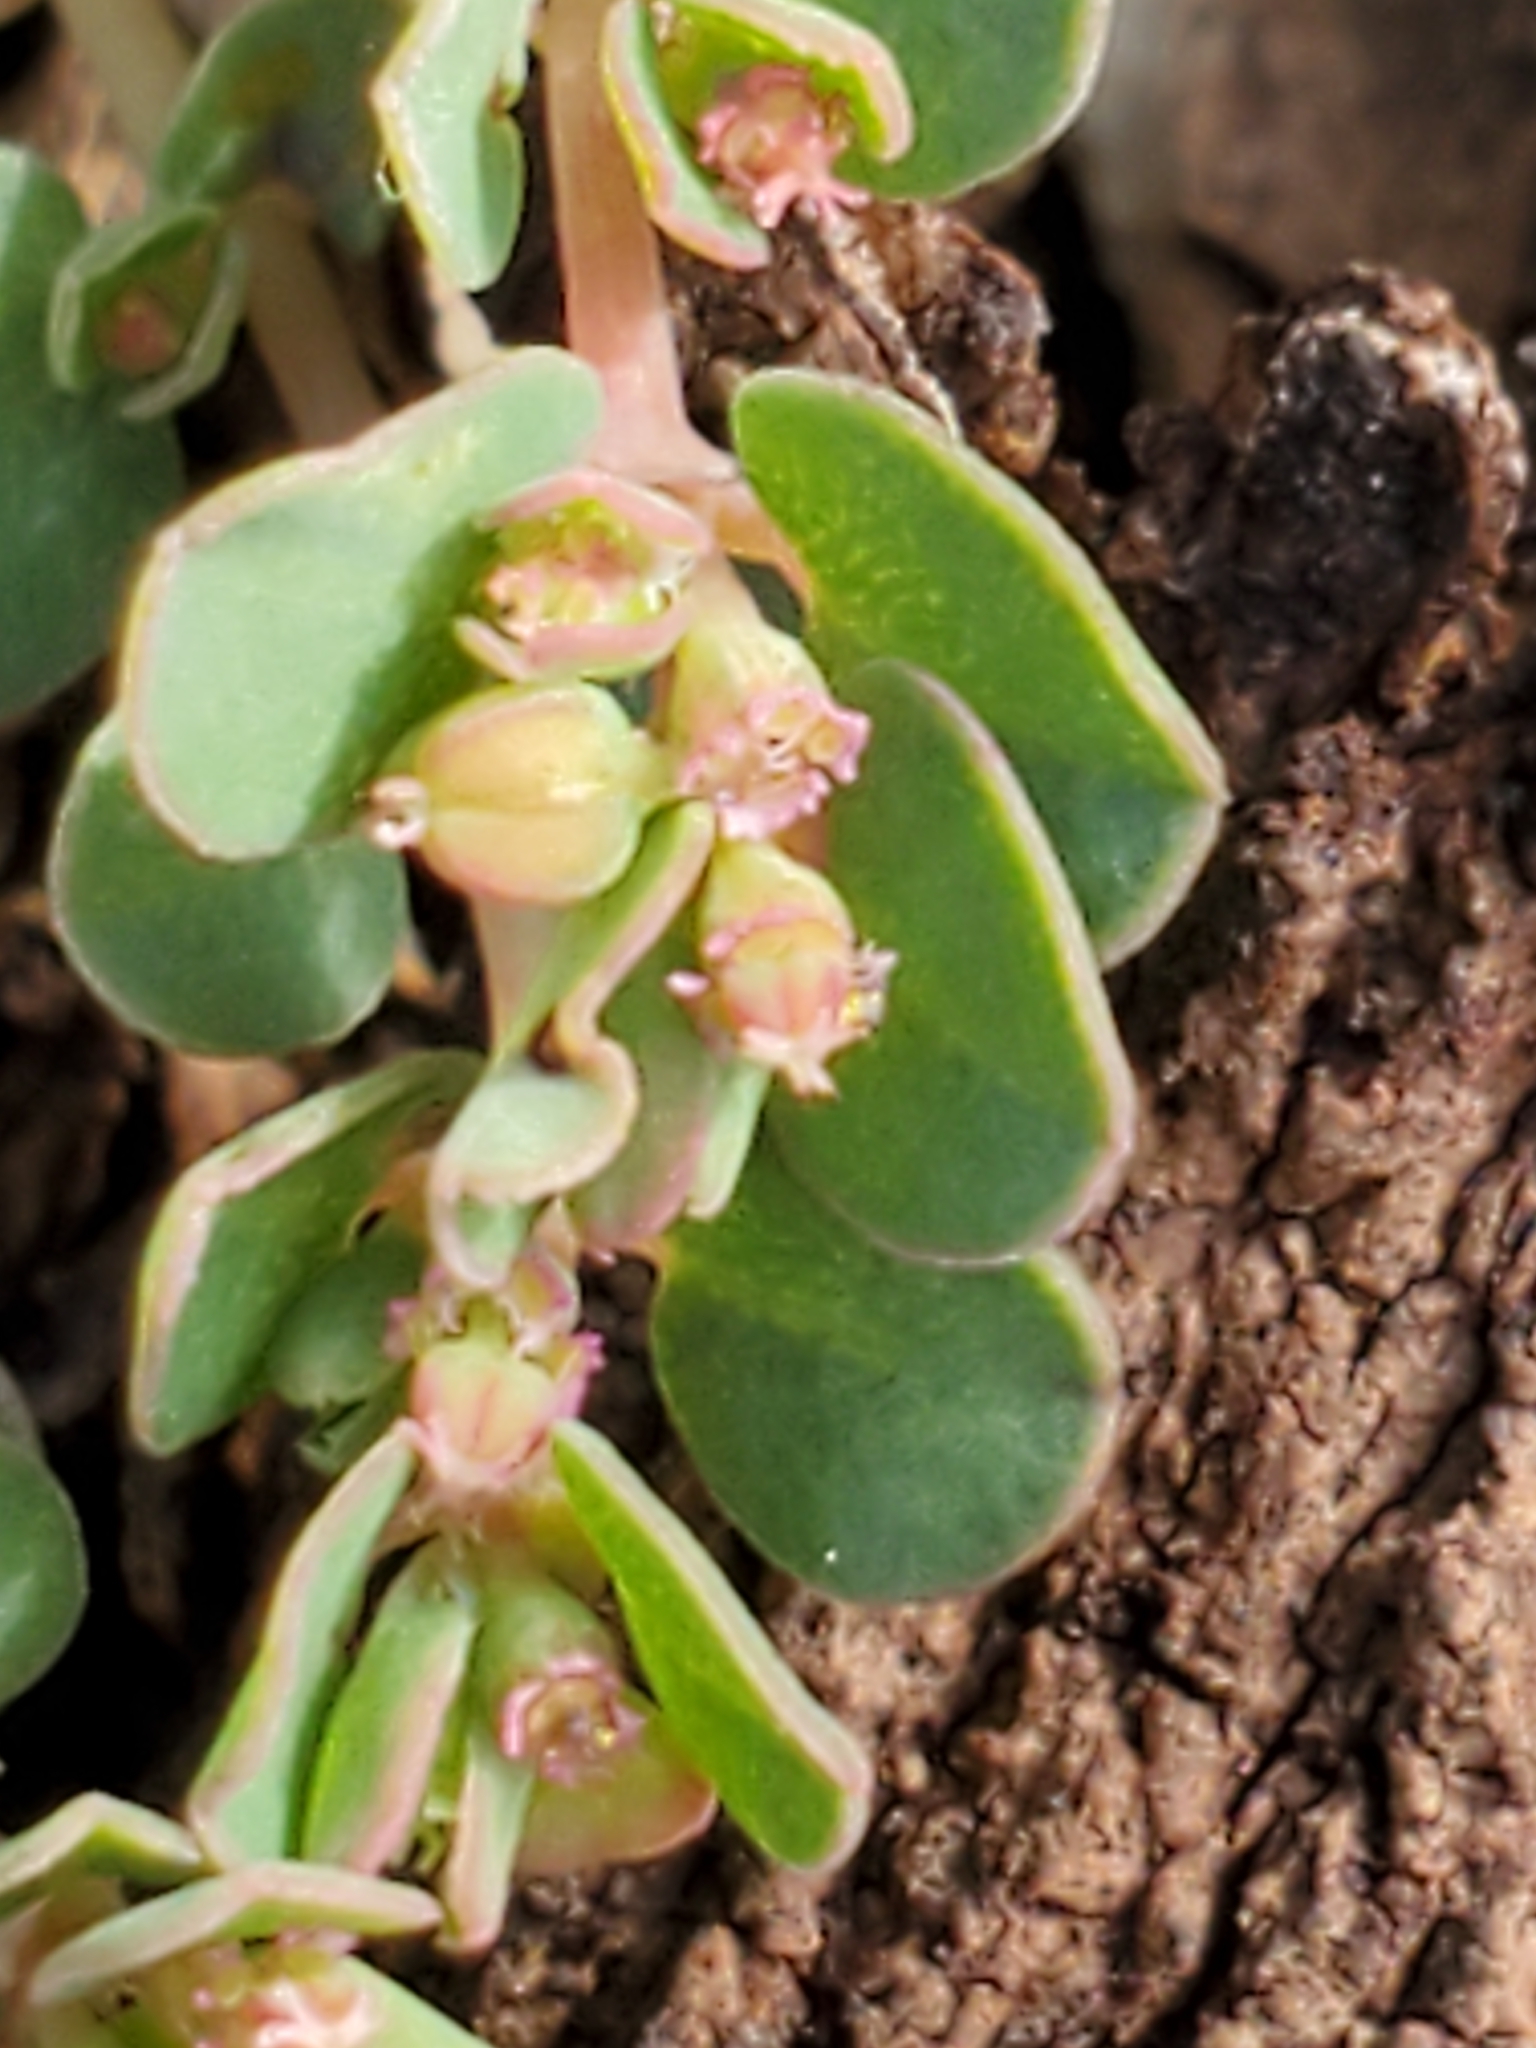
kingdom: Plantae
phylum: Tracheophyta
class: Magnoliopsida
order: Malpighiales
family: Euphorbiaceae
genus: Euphorbia
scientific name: Euphorbia serpens
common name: Matted sandmat
